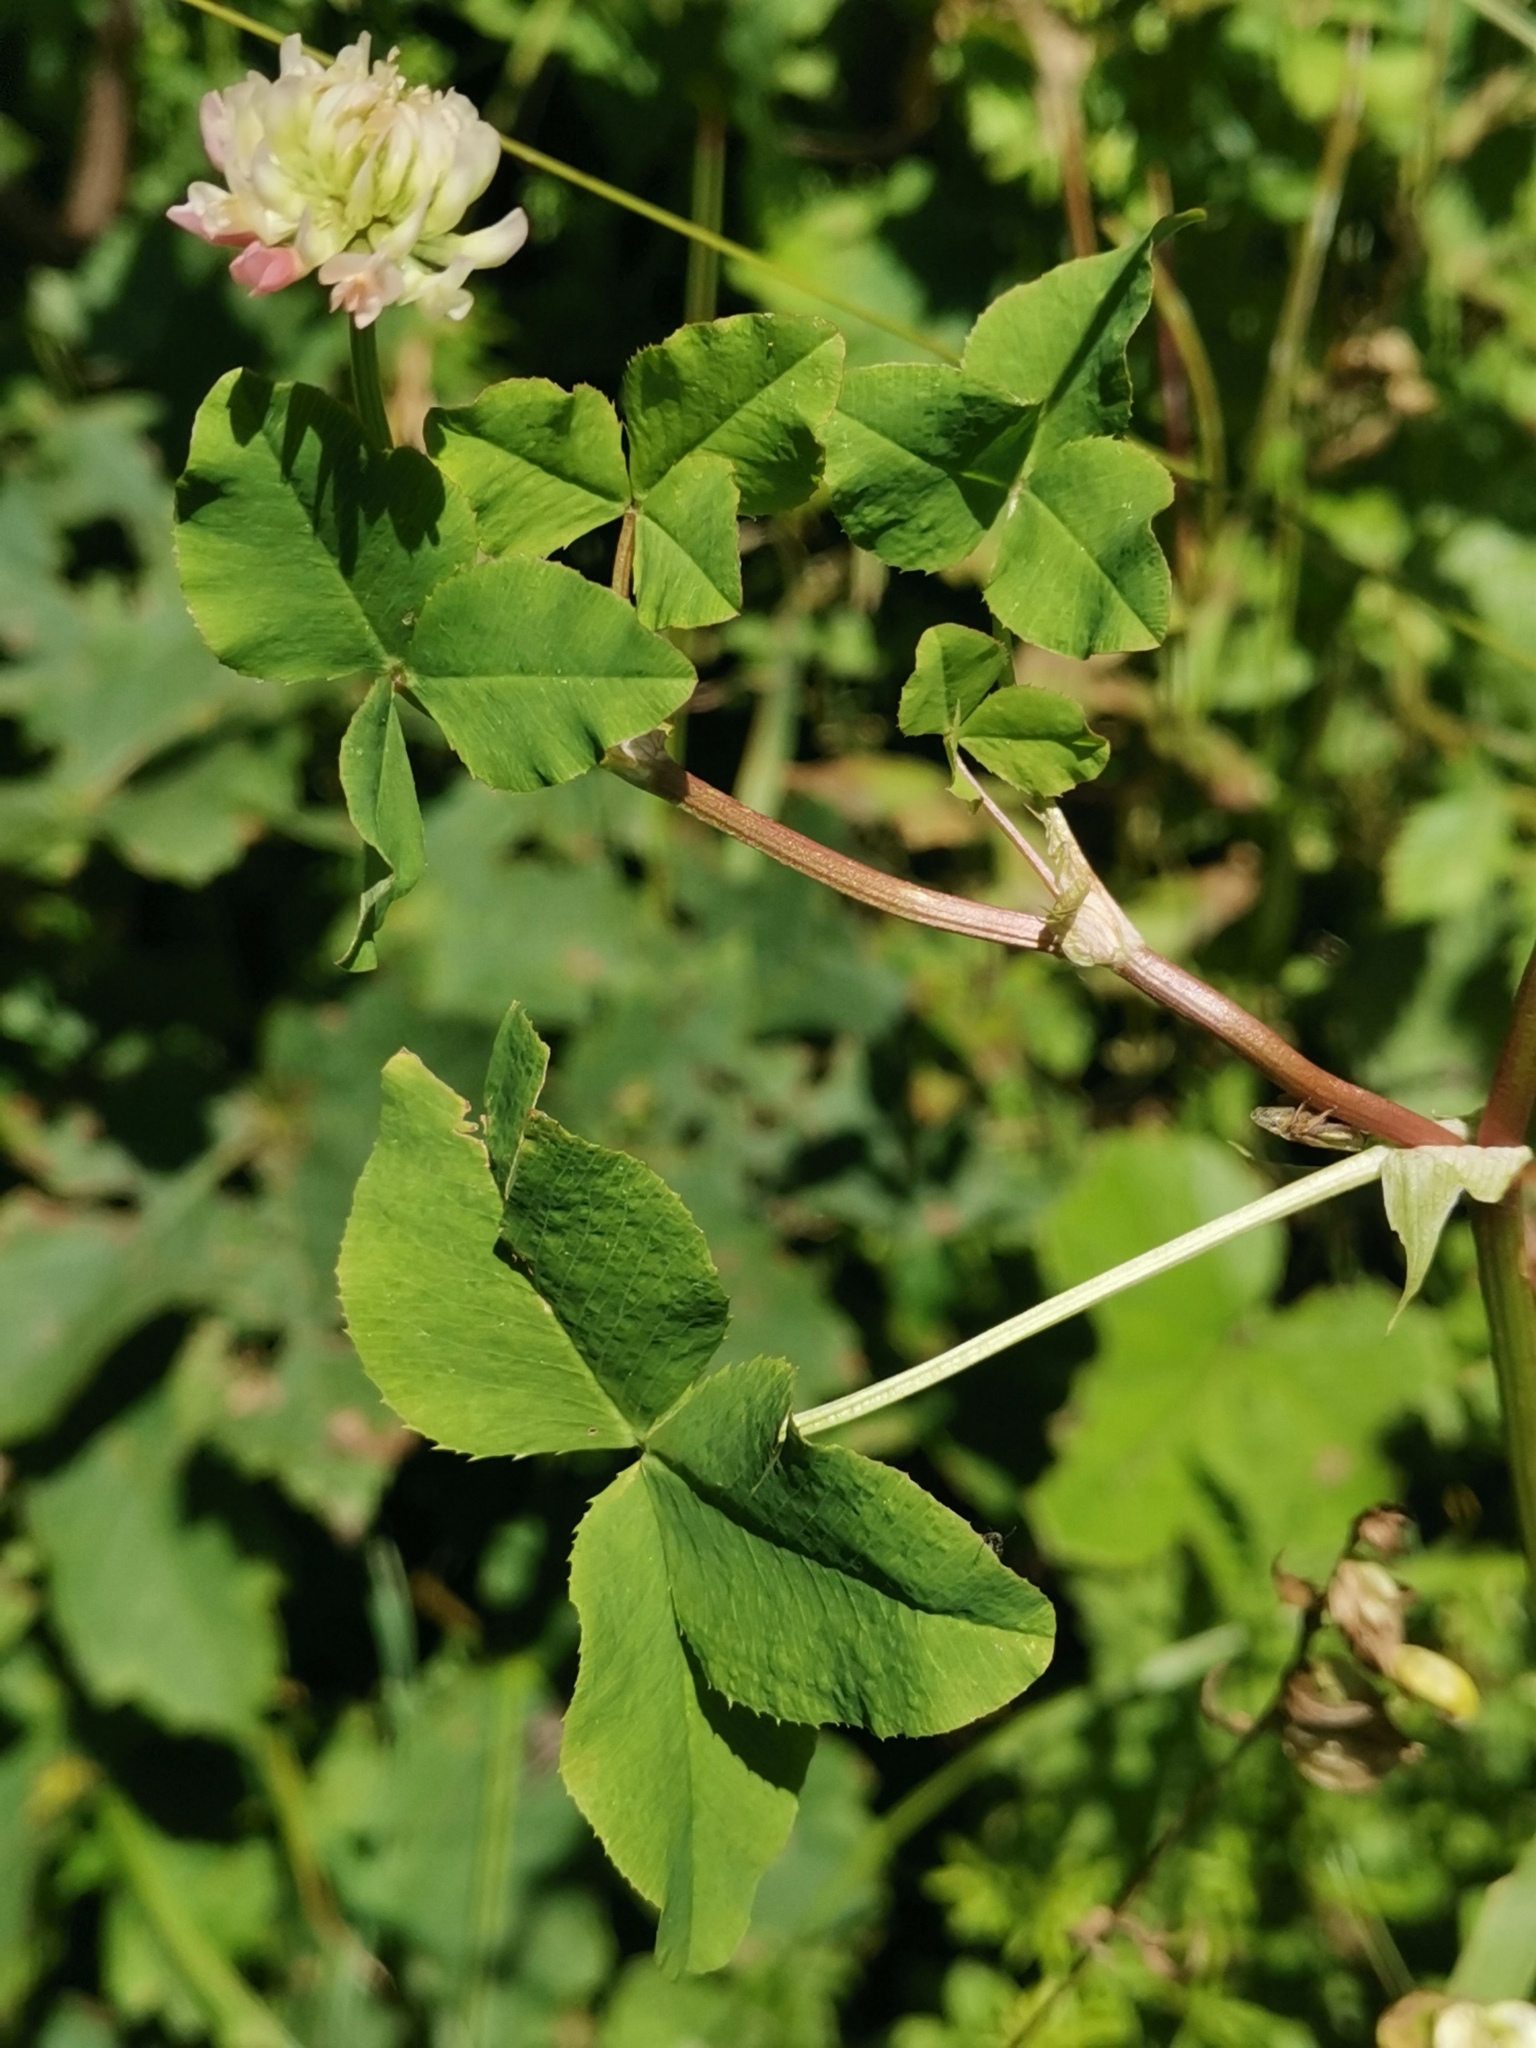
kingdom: Plantae
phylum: Tracheophyta
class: Magnoliopsida
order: Fabales
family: Fabaceae
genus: Trifolium
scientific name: Trifolium hybridum
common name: Alsike clover
